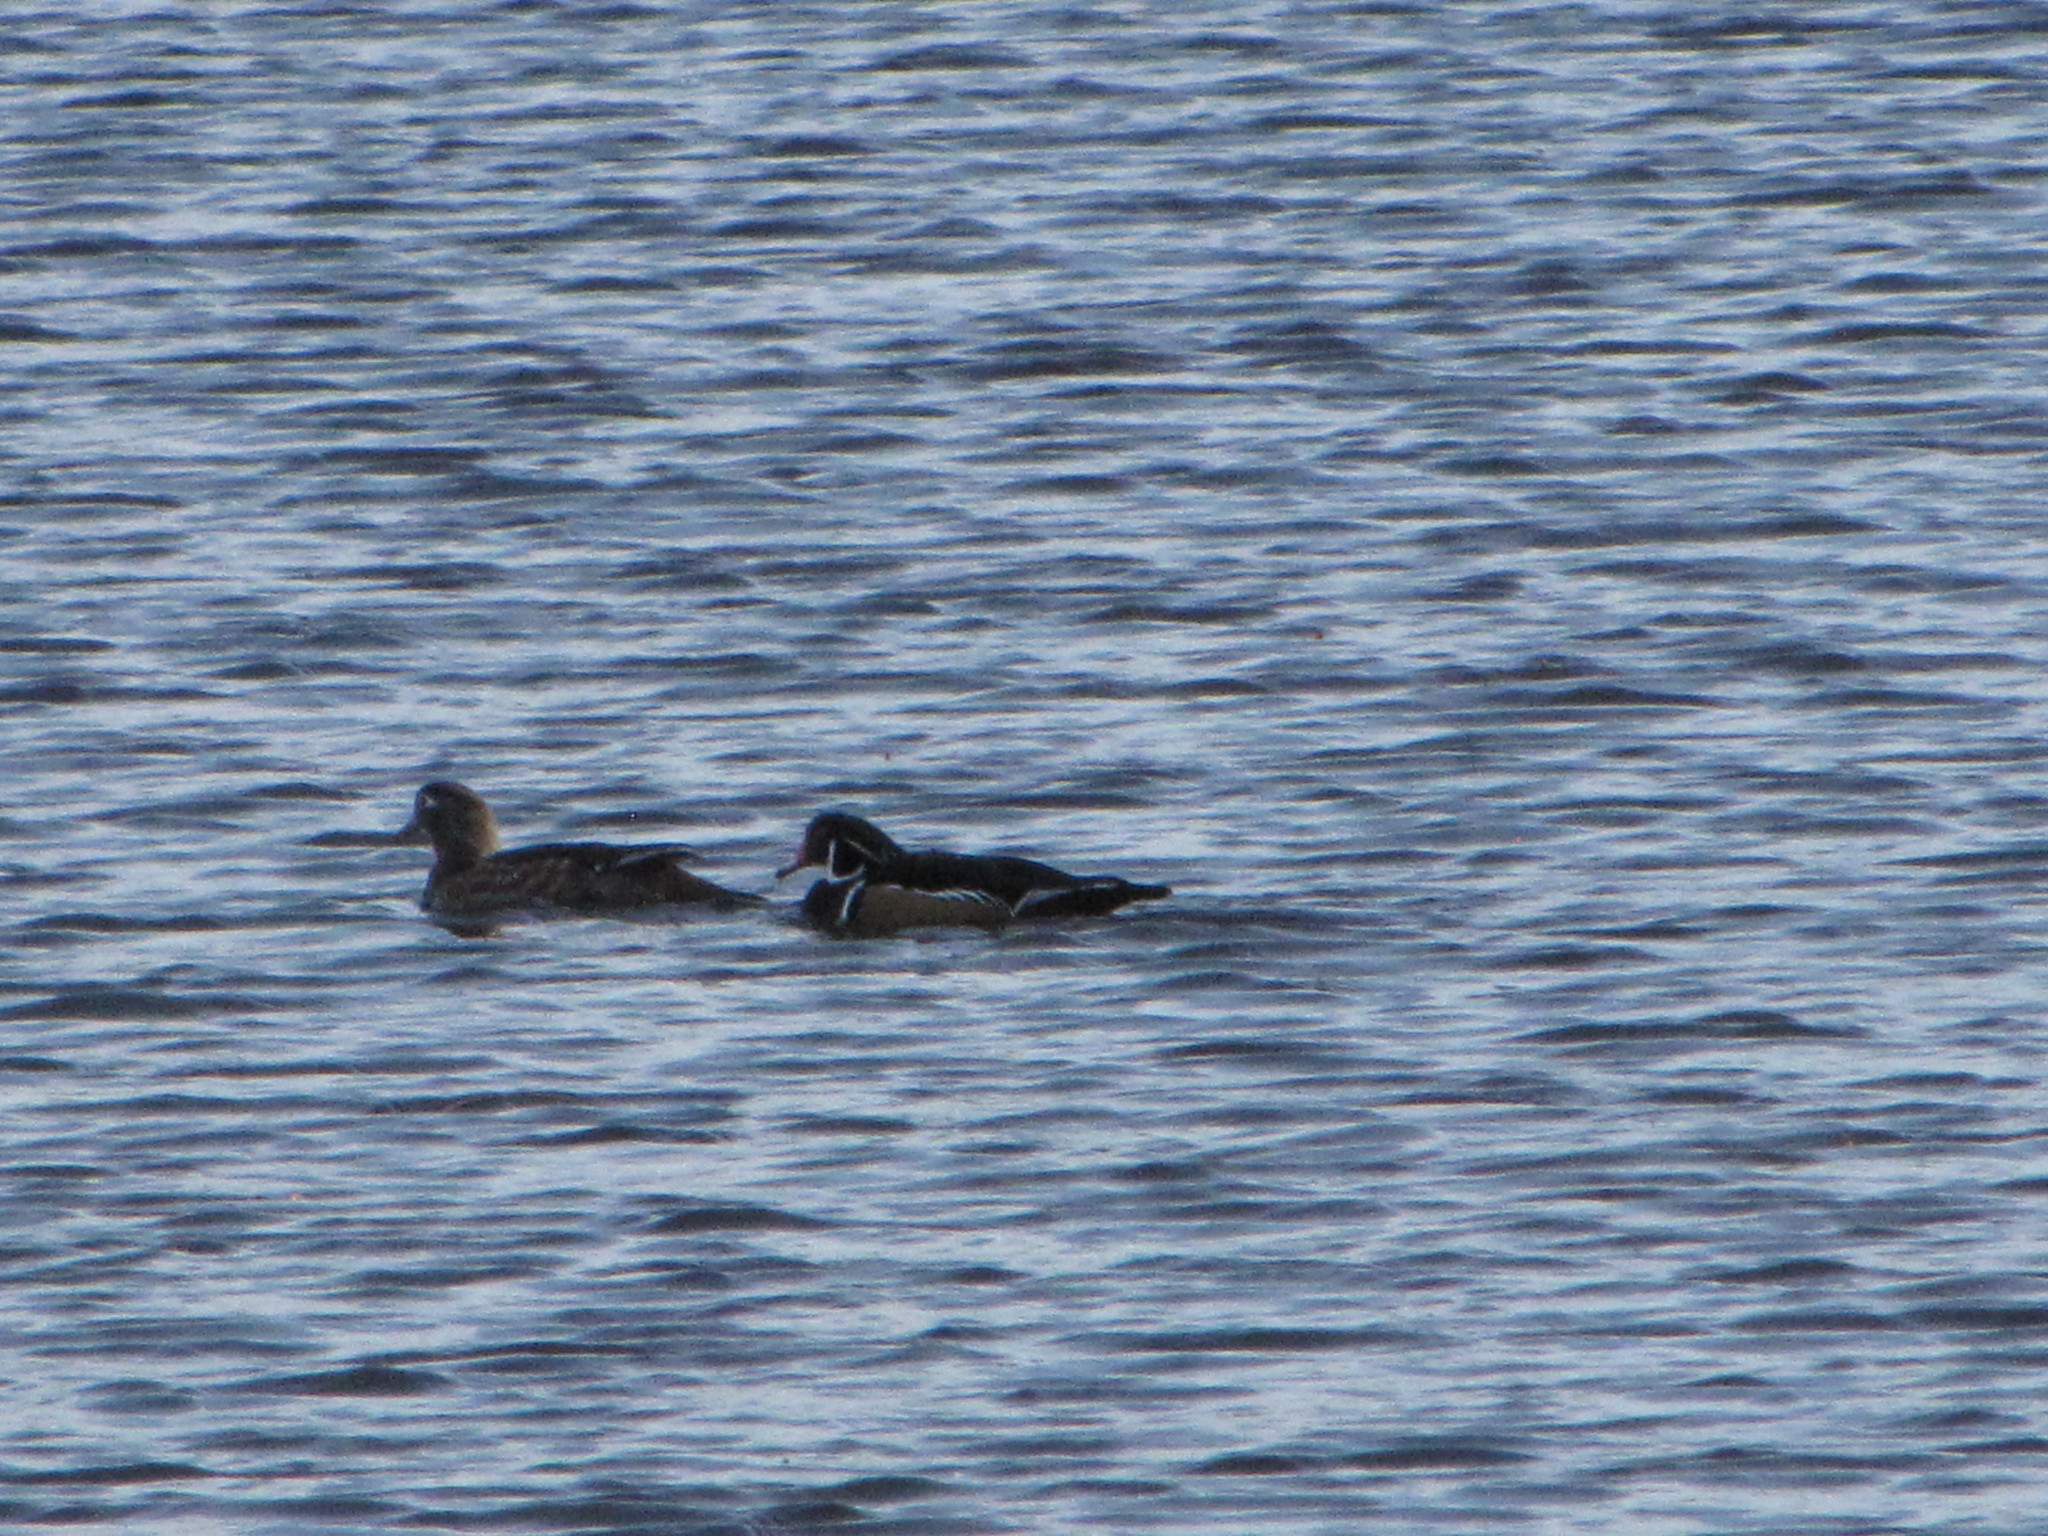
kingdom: Animalia
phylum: Chordata
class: Aves
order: Anseriformes
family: Anatidae
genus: Aix
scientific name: Aix sponsa
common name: Wood duck
